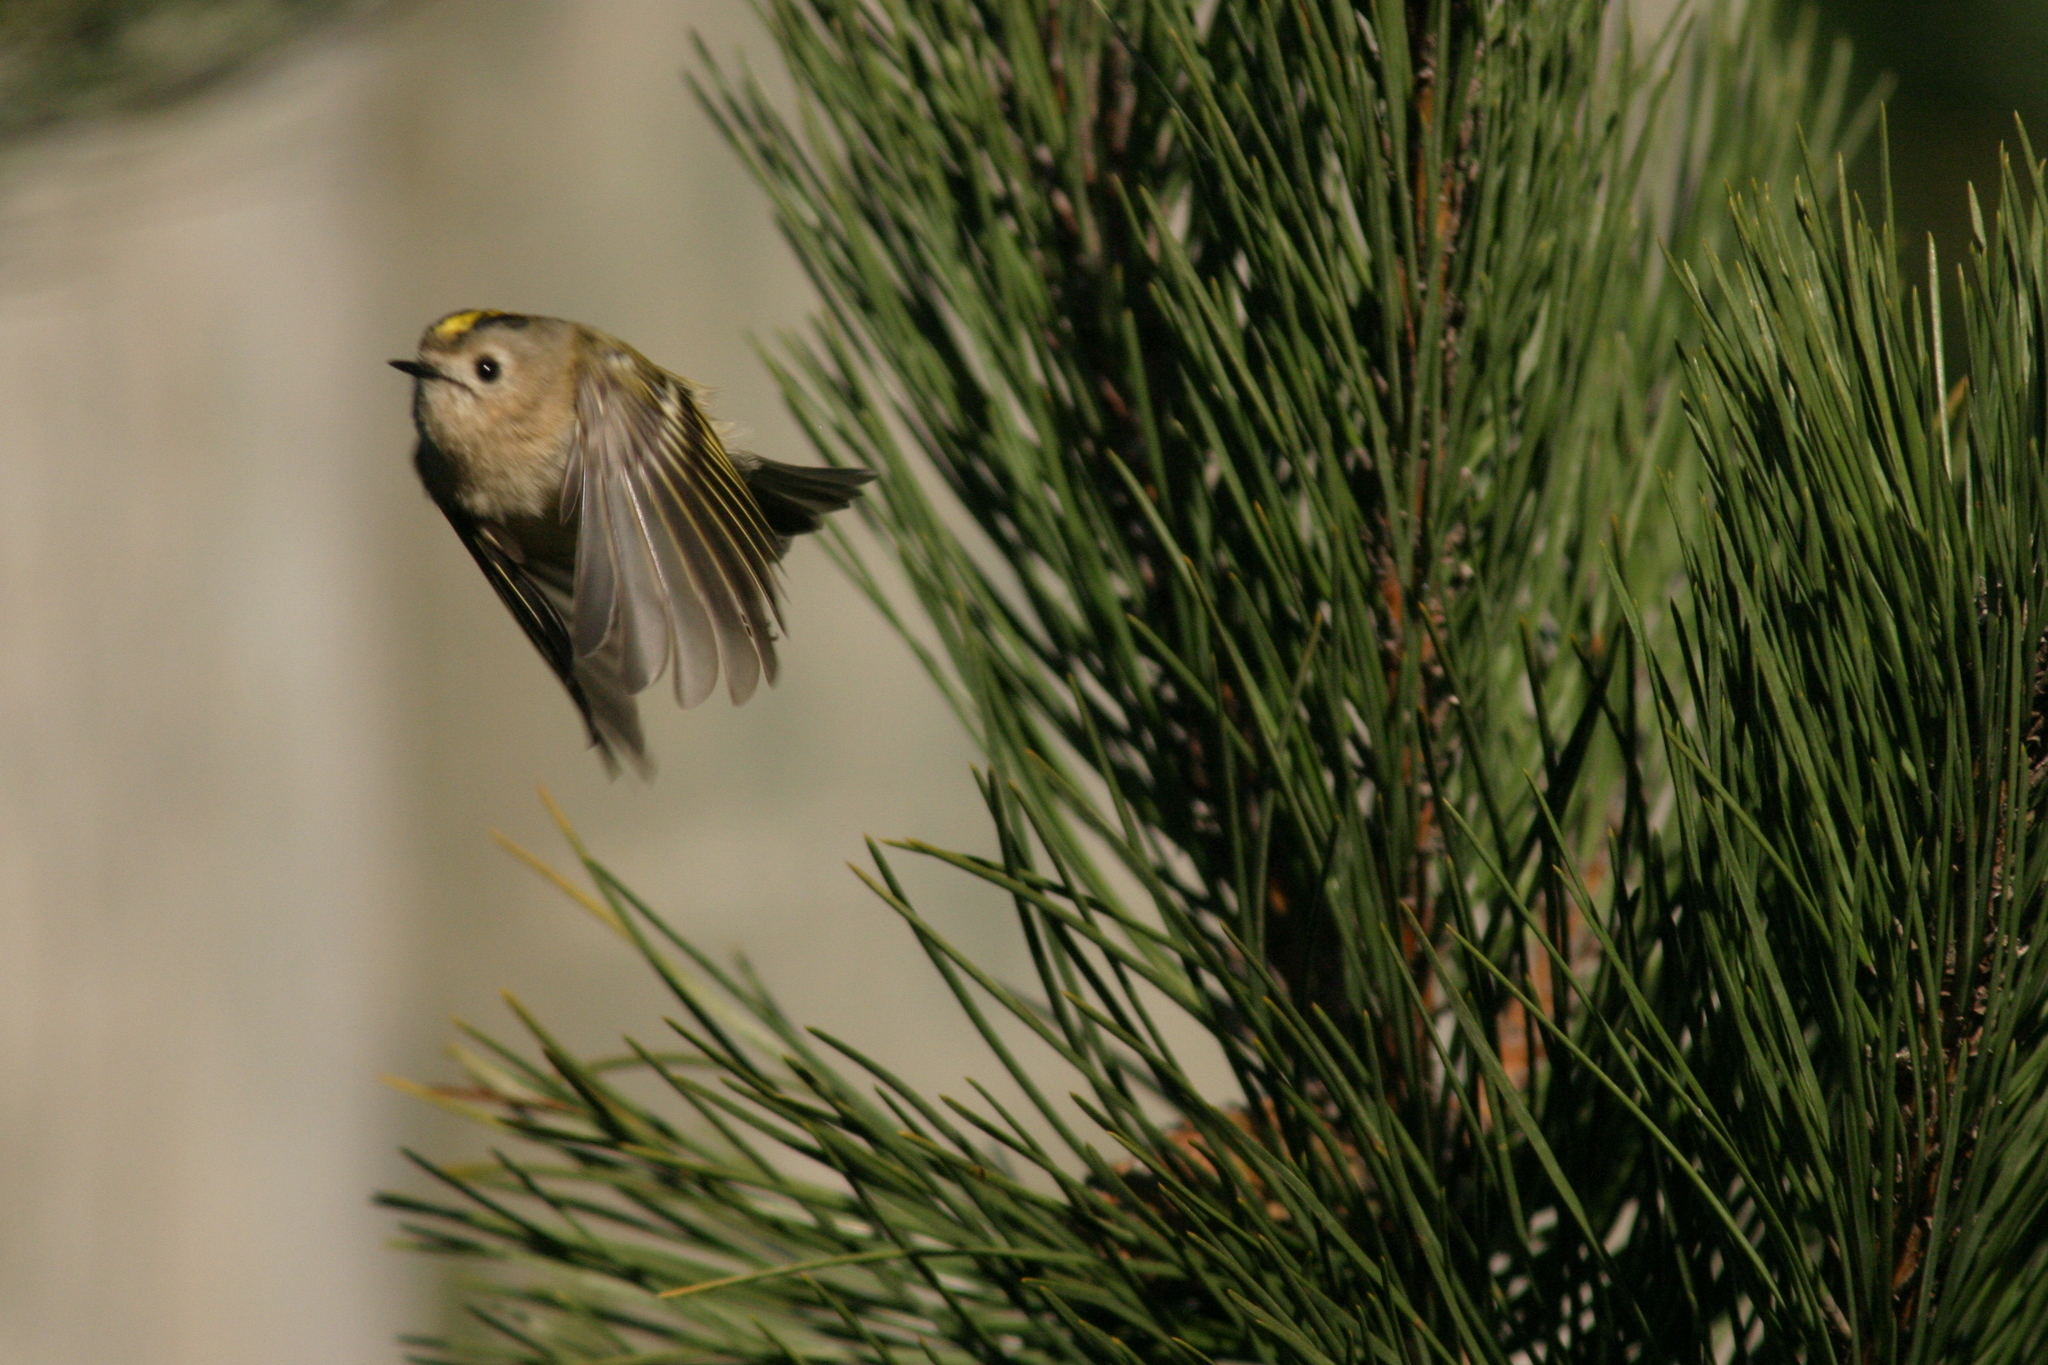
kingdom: Animalia
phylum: Chordata
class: Aves
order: Passeriformes
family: Regulidae
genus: Regulus
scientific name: Regulus regulus
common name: Goldcrest
